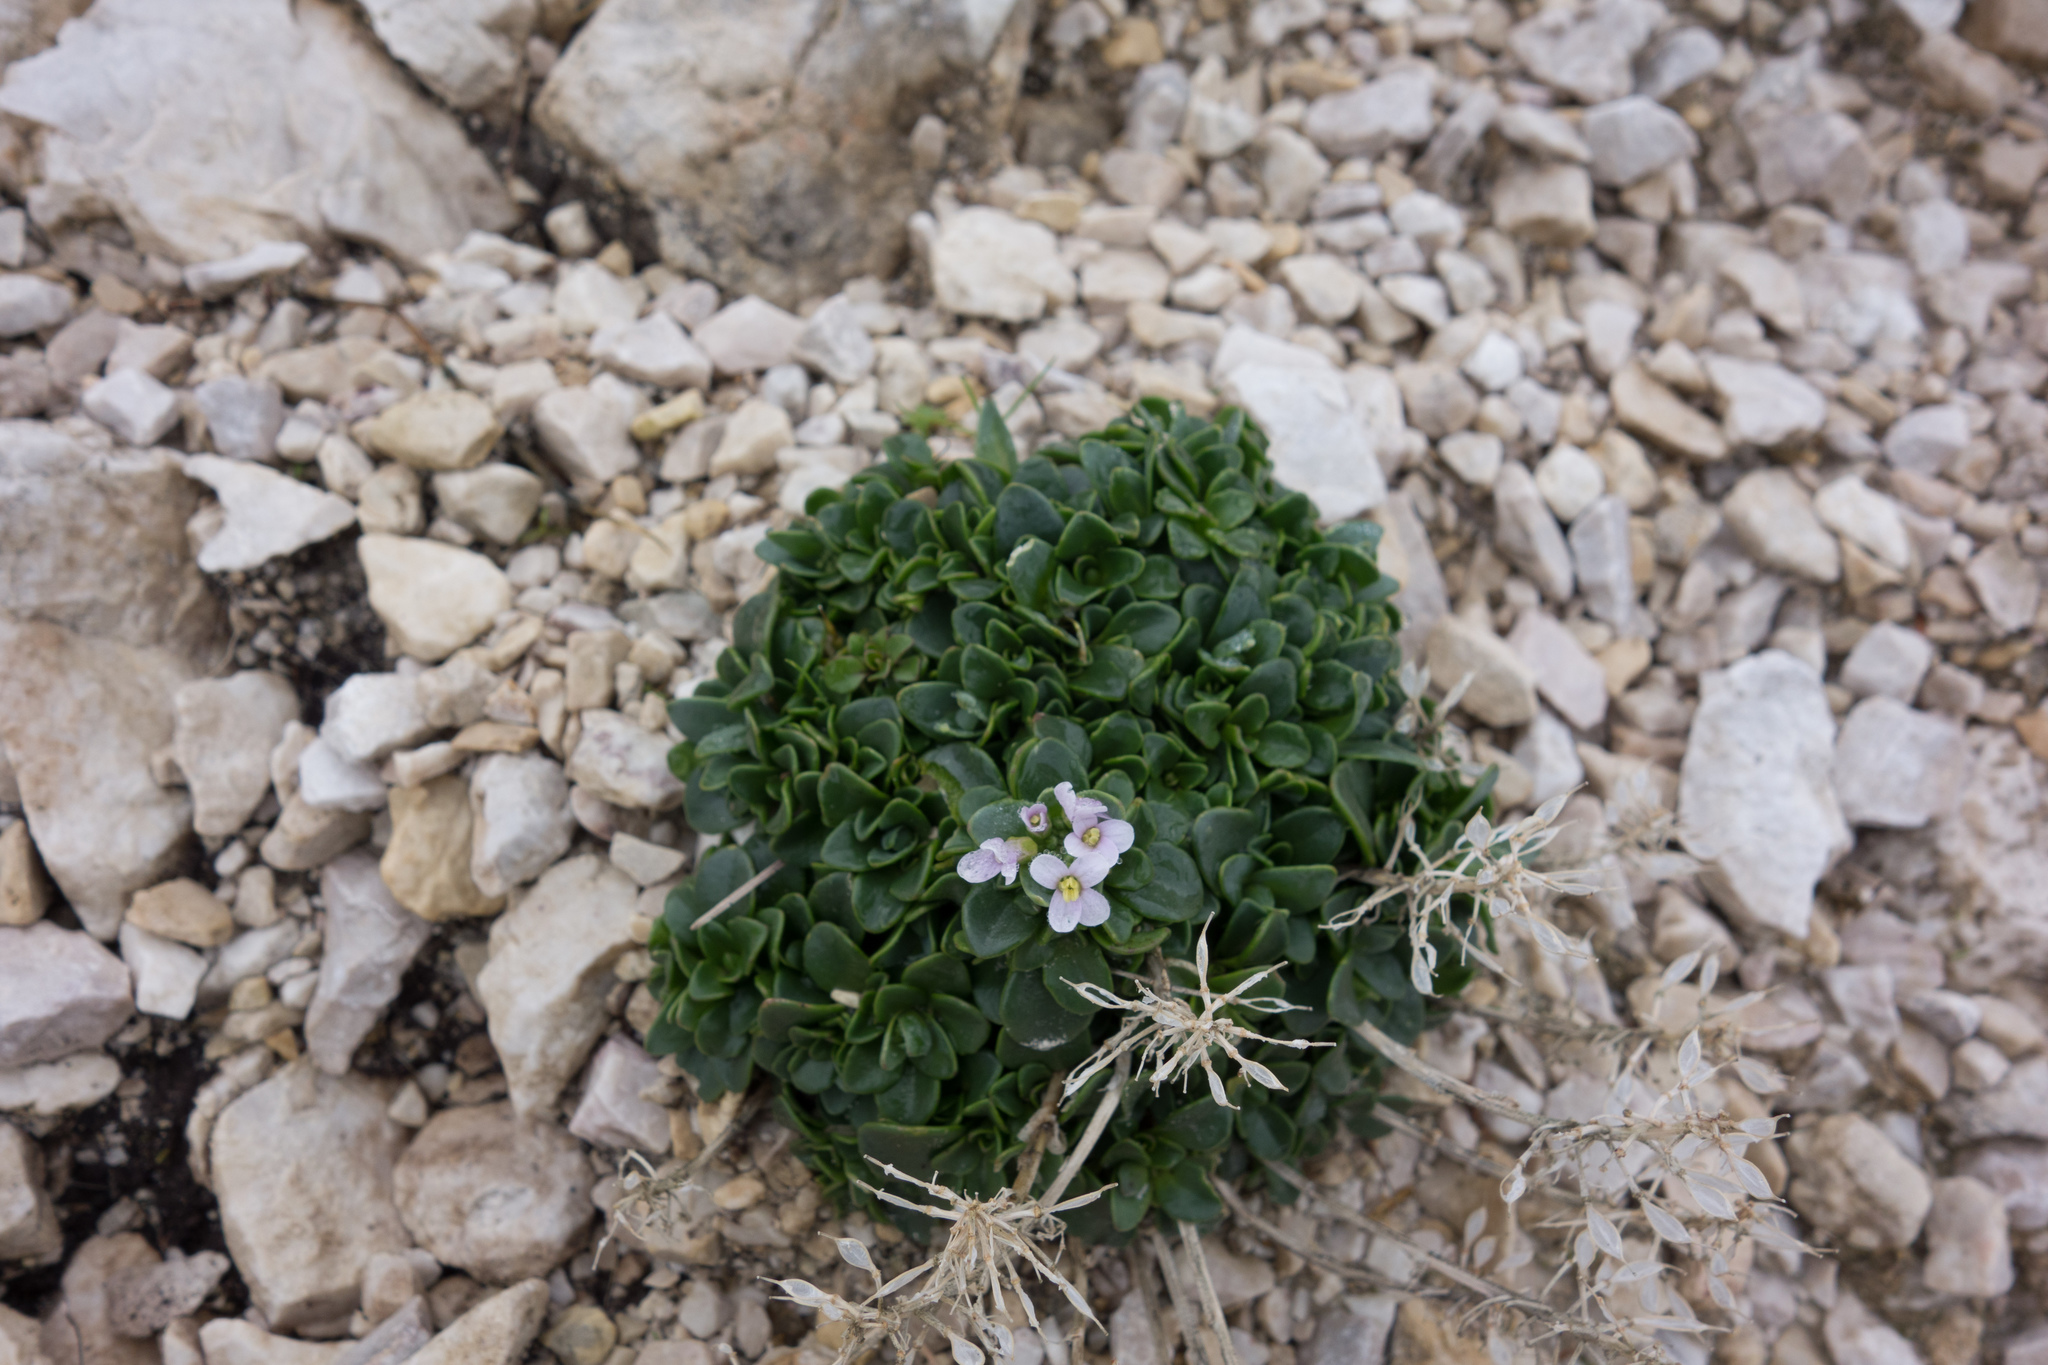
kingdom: Plantae
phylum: Tracheophyta
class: Magnoliopsida
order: Brassicales
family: Brassicaceae
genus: Noccaea
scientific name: Noccaea rotundifolia
